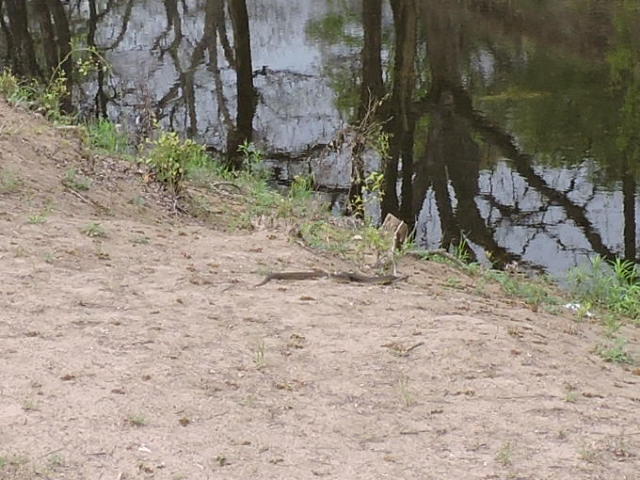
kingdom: Animalia
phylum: Chordata
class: Squamata
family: Colubridae
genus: Nerodia
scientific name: Nerodia erythrogaster
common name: Plainbelly water snake
